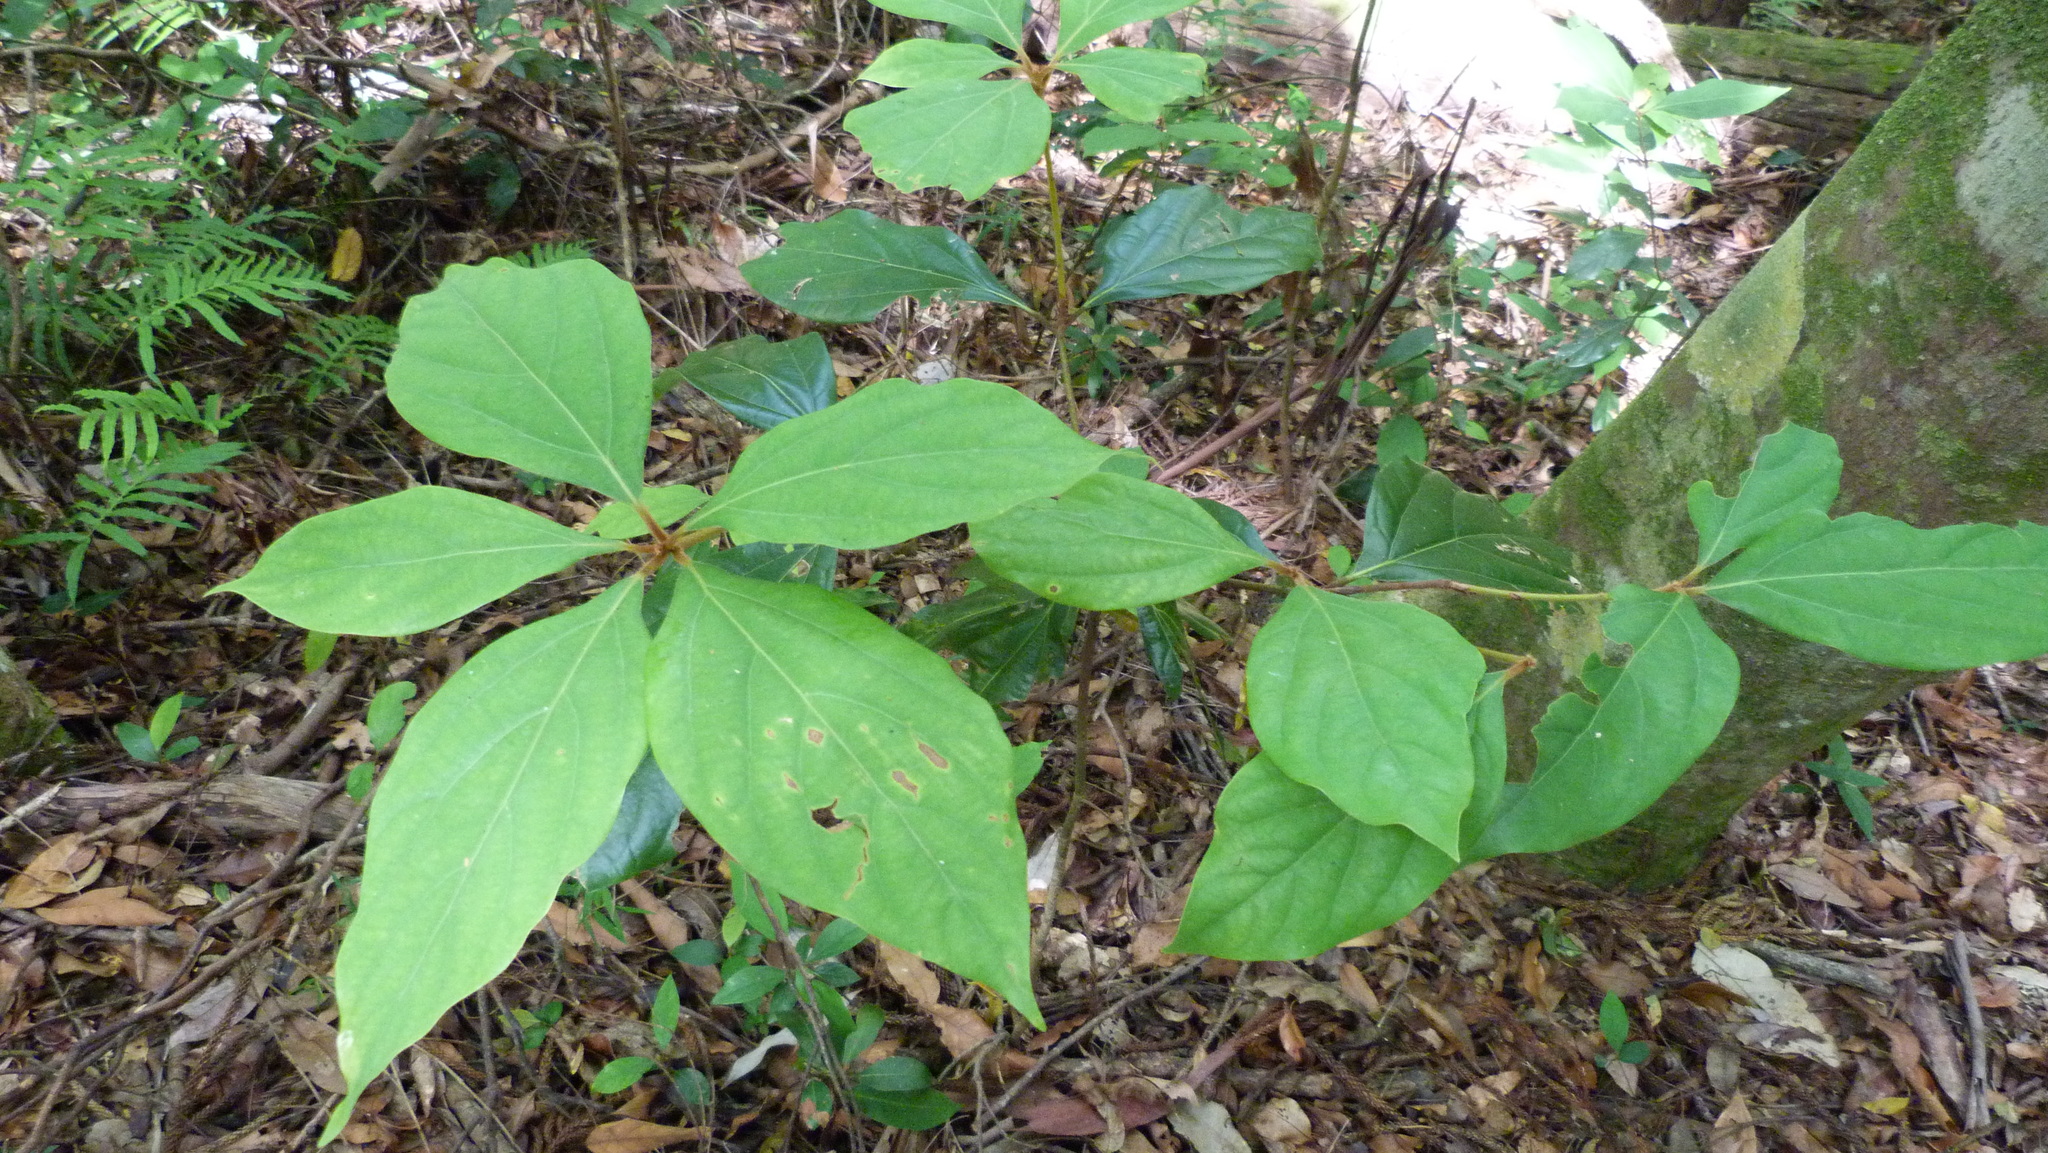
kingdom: Plantae
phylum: Tracheophyta
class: Magnoliopsida
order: Laurales
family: Lauraceae
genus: Neolitsea
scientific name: Neolitsea dealbata
